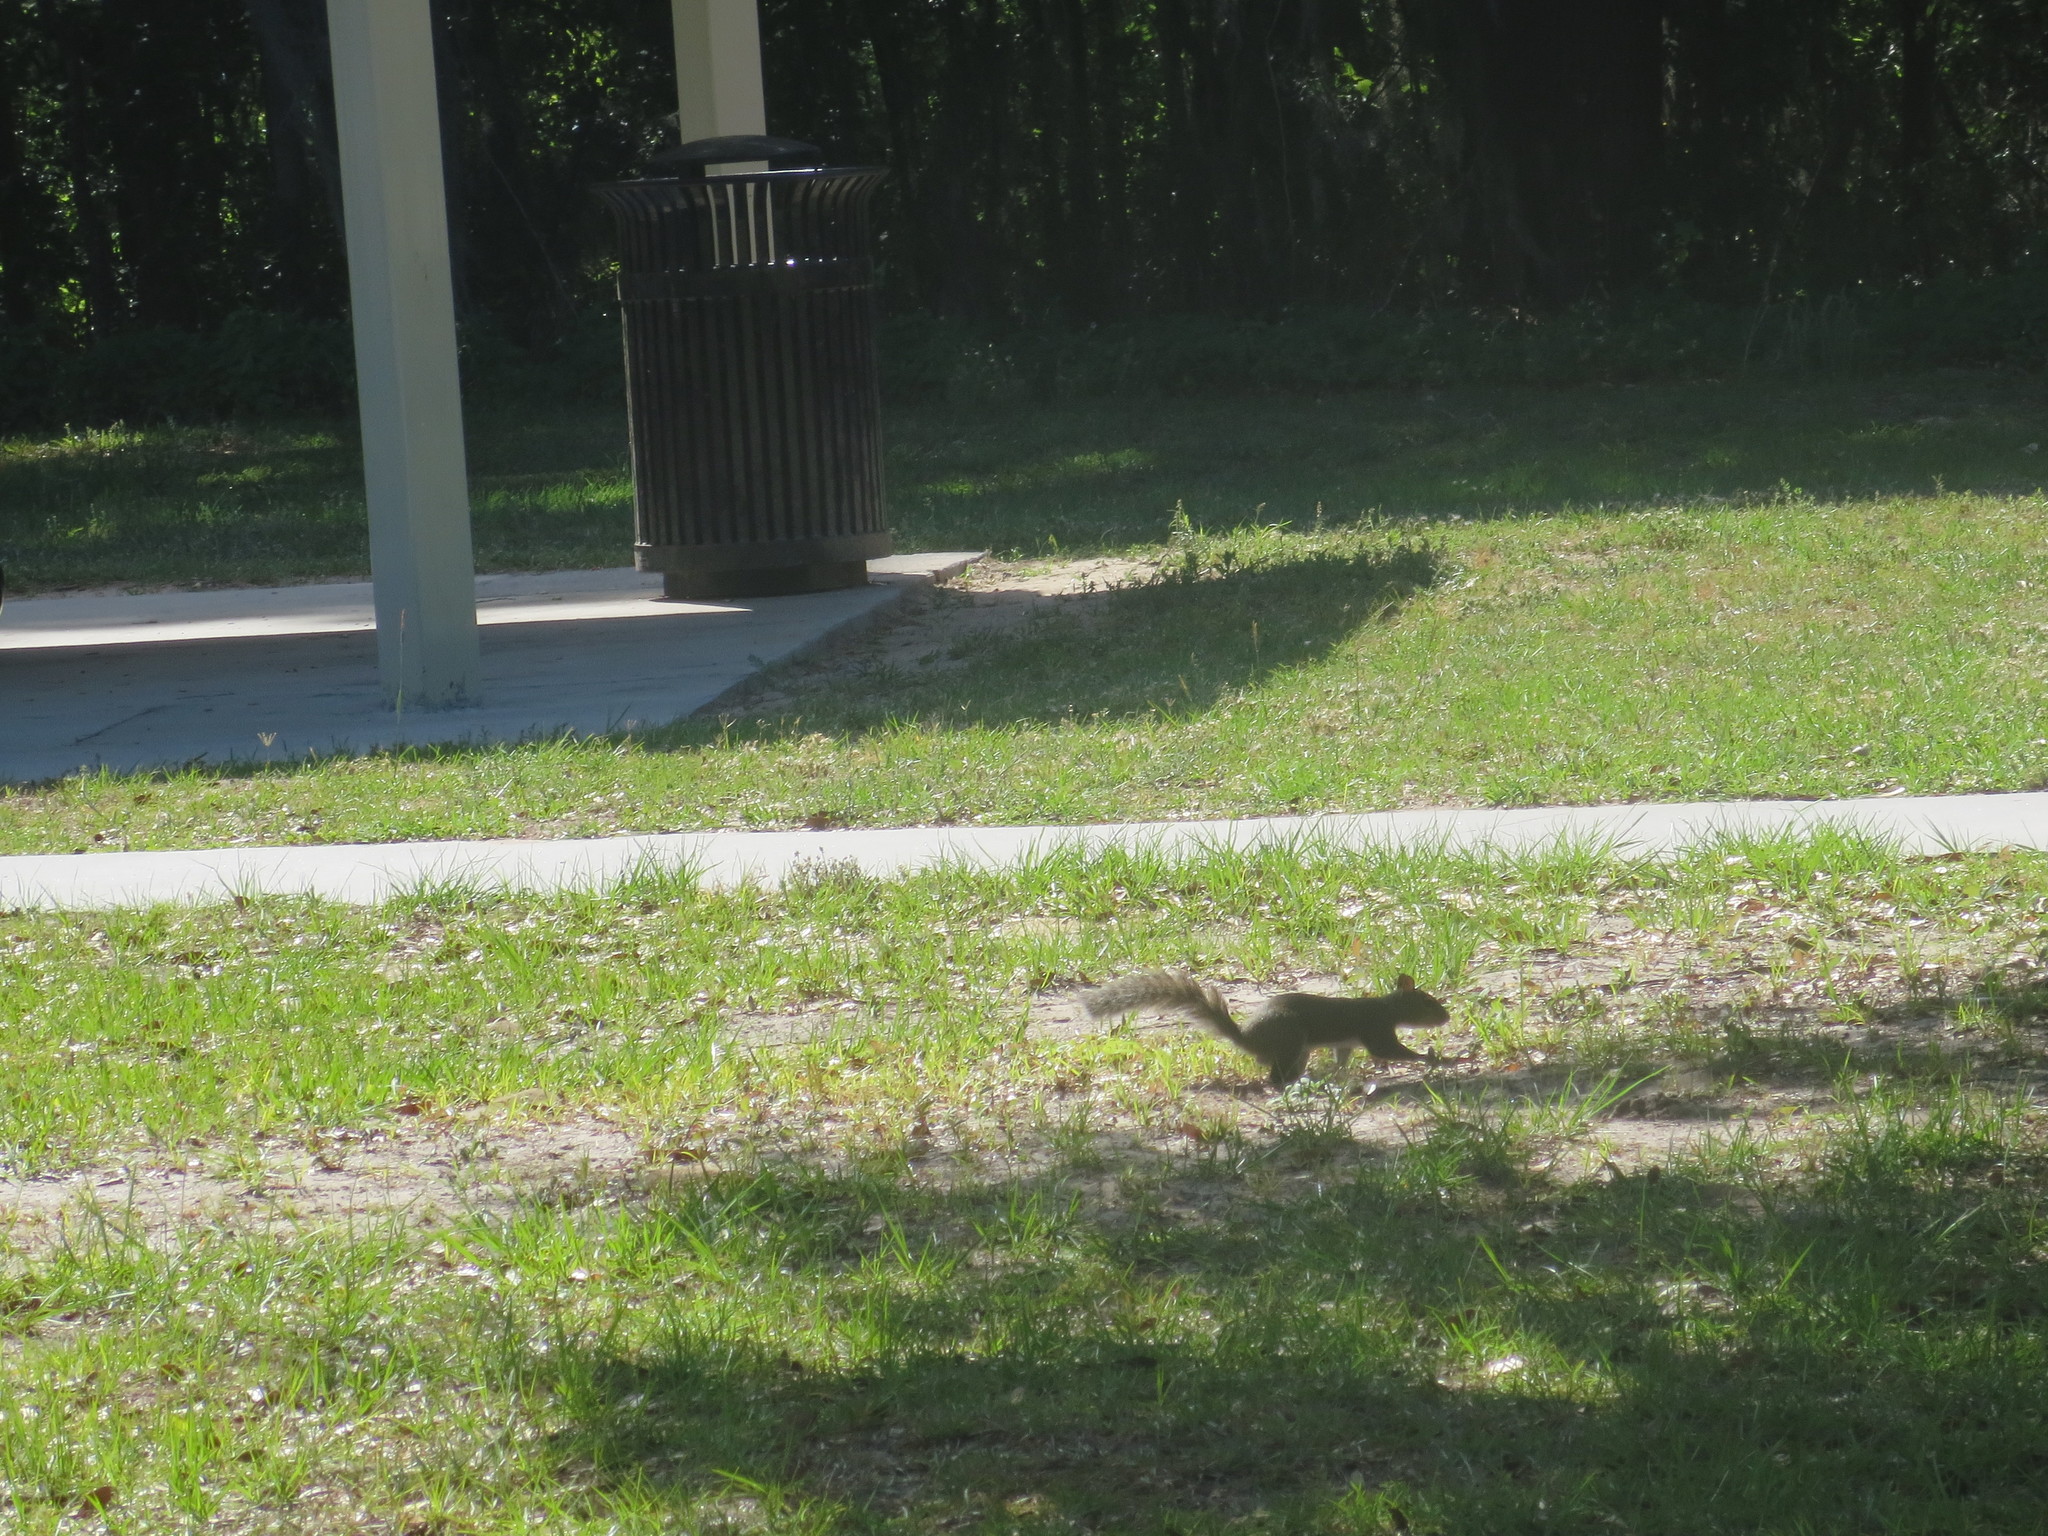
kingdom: Animalia
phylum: Chordata
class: Mammalia
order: Rodentia
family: Sciuridae
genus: Sciurus
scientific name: Sciurus carolinensis
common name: Eastern gray squirrel
